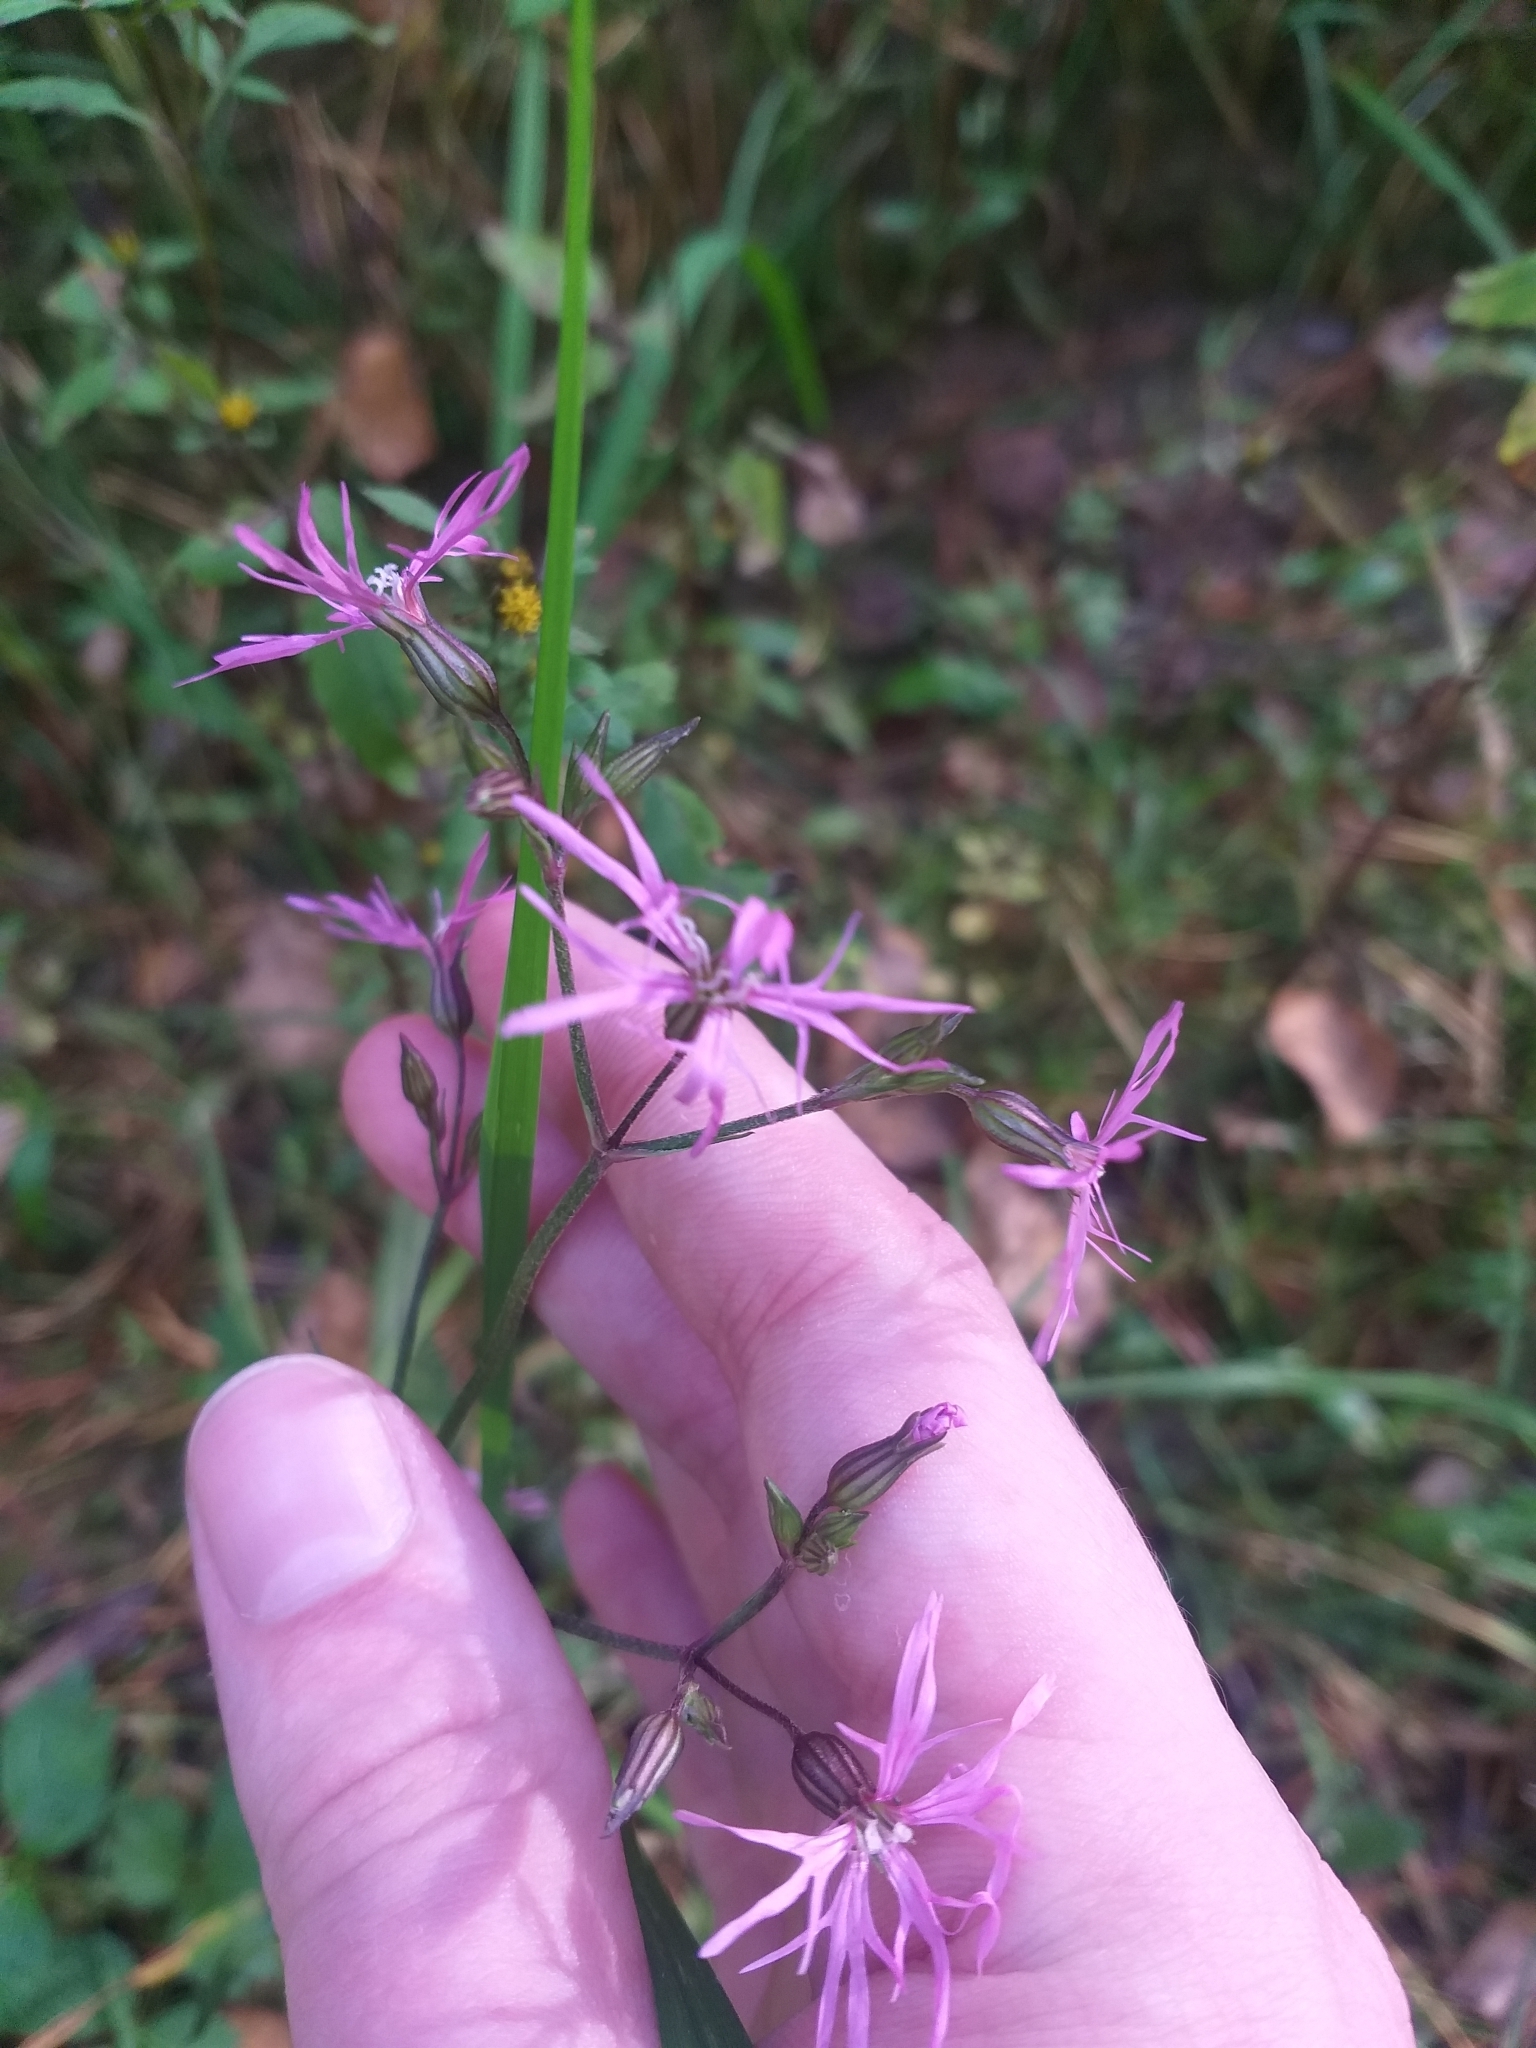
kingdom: Plantae
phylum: Tracheophyta
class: Magnoliopsida
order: Caryophyllales
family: Caryophyllaceae
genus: Silene
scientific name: Silene flos-cuculi
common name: Ragged-robin
